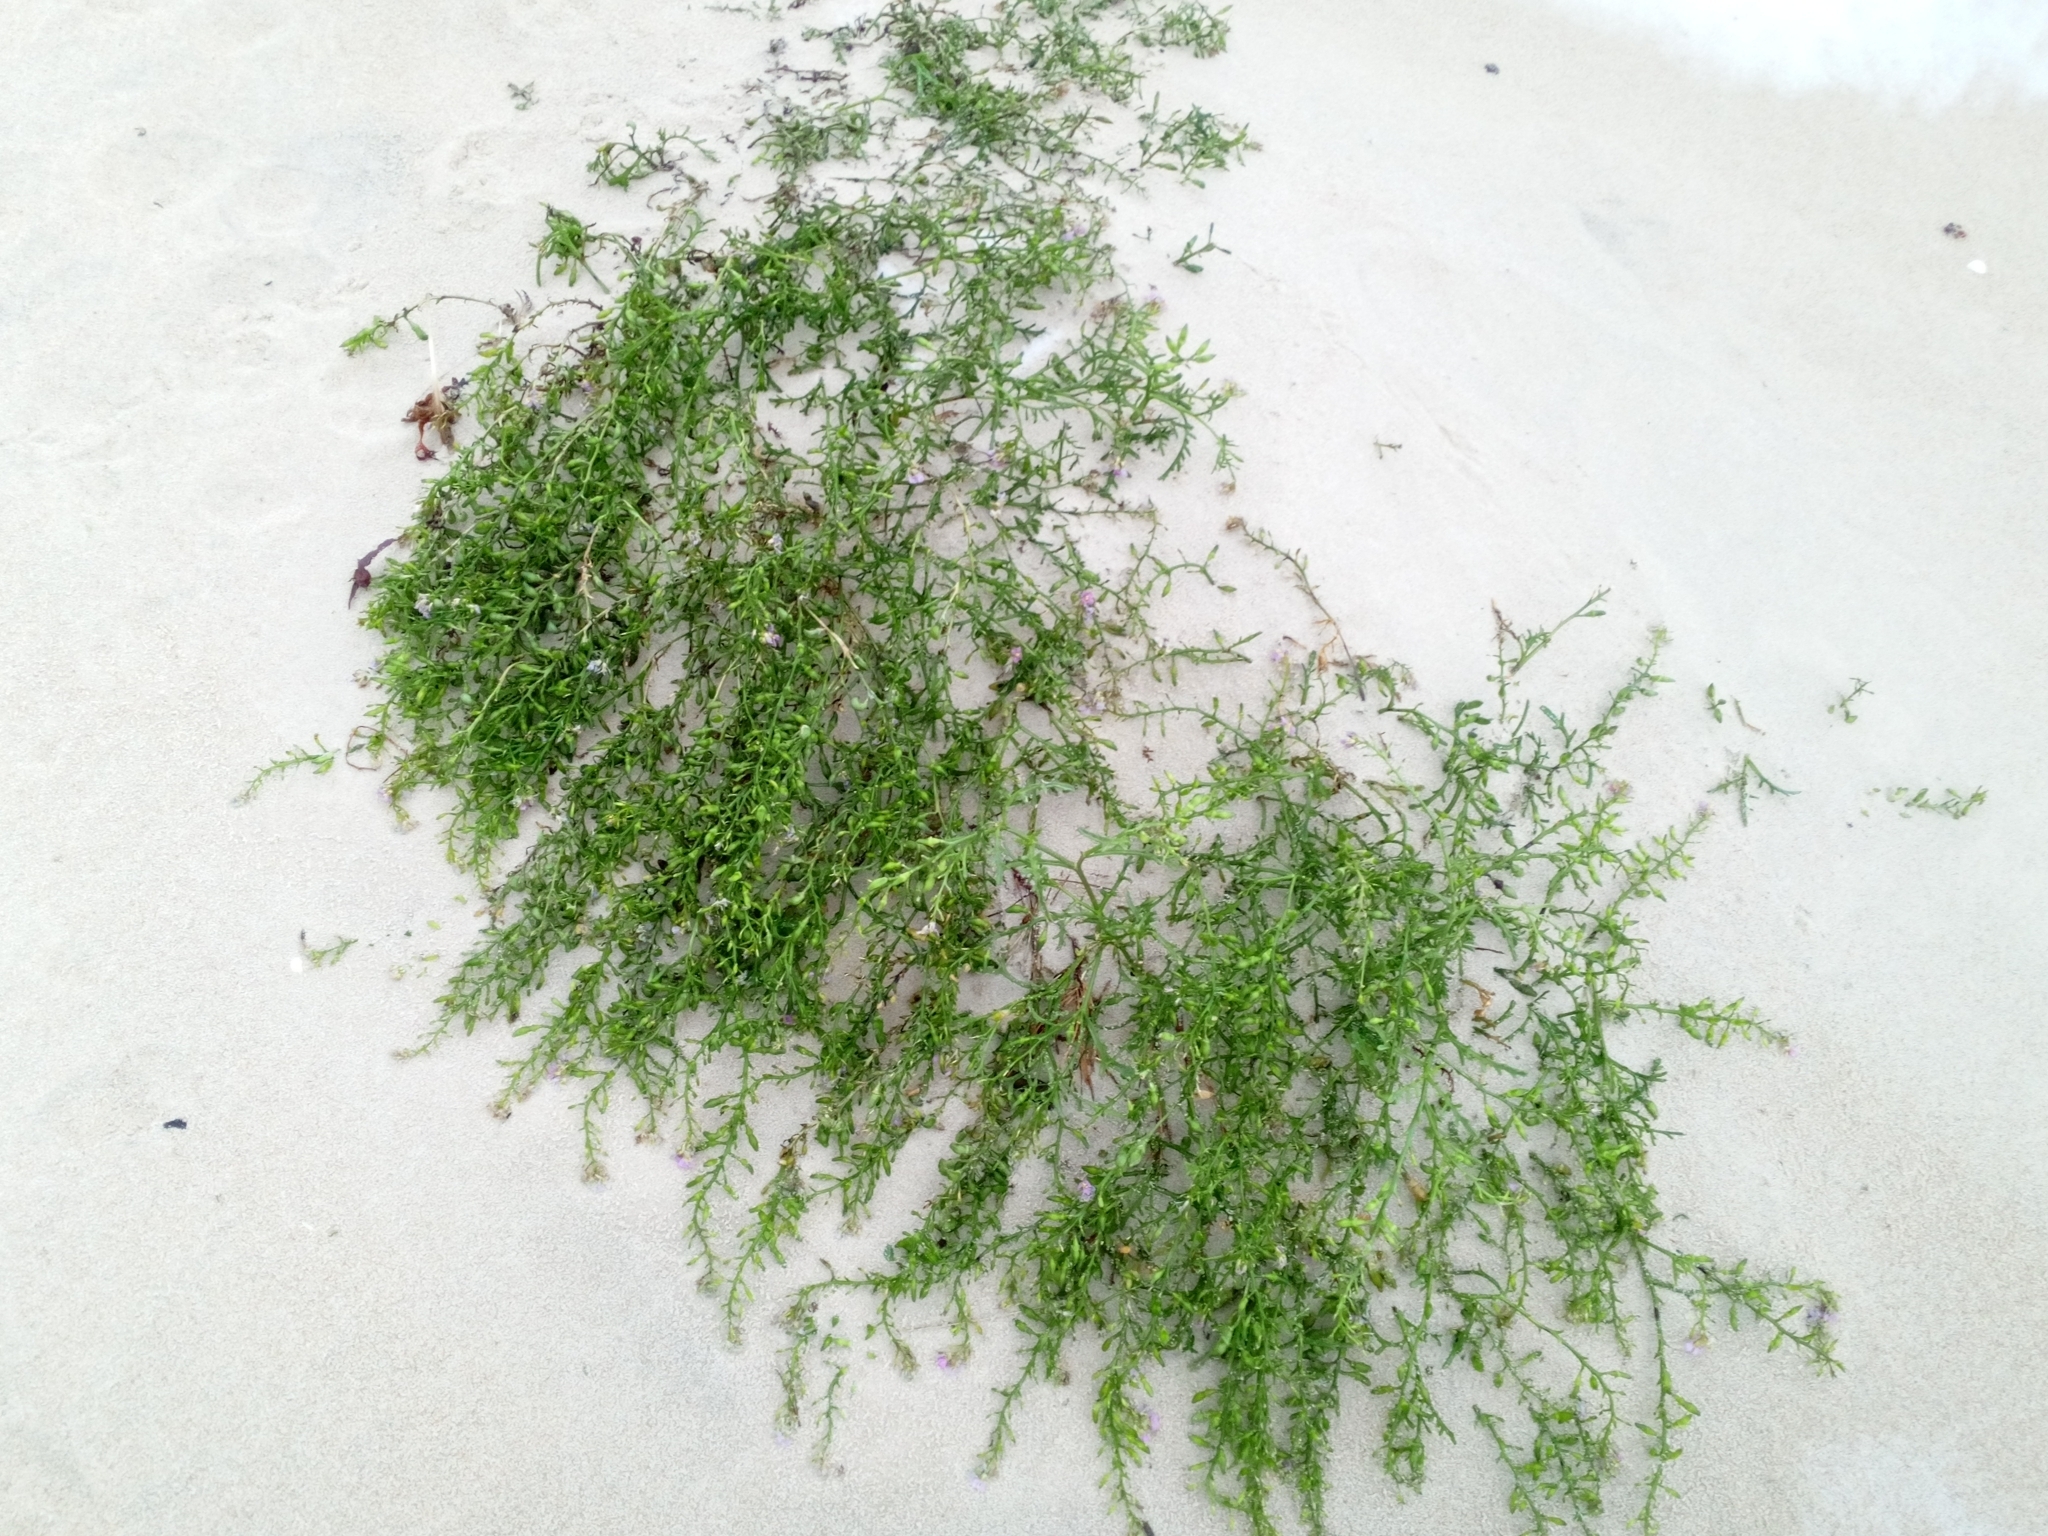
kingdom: Plantae
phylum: Tracheophyta
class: Magnoliopsida
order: Brassicales
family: Brassicaceae
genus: Cakile
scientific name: Cakile maritima
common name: Sea rocket
